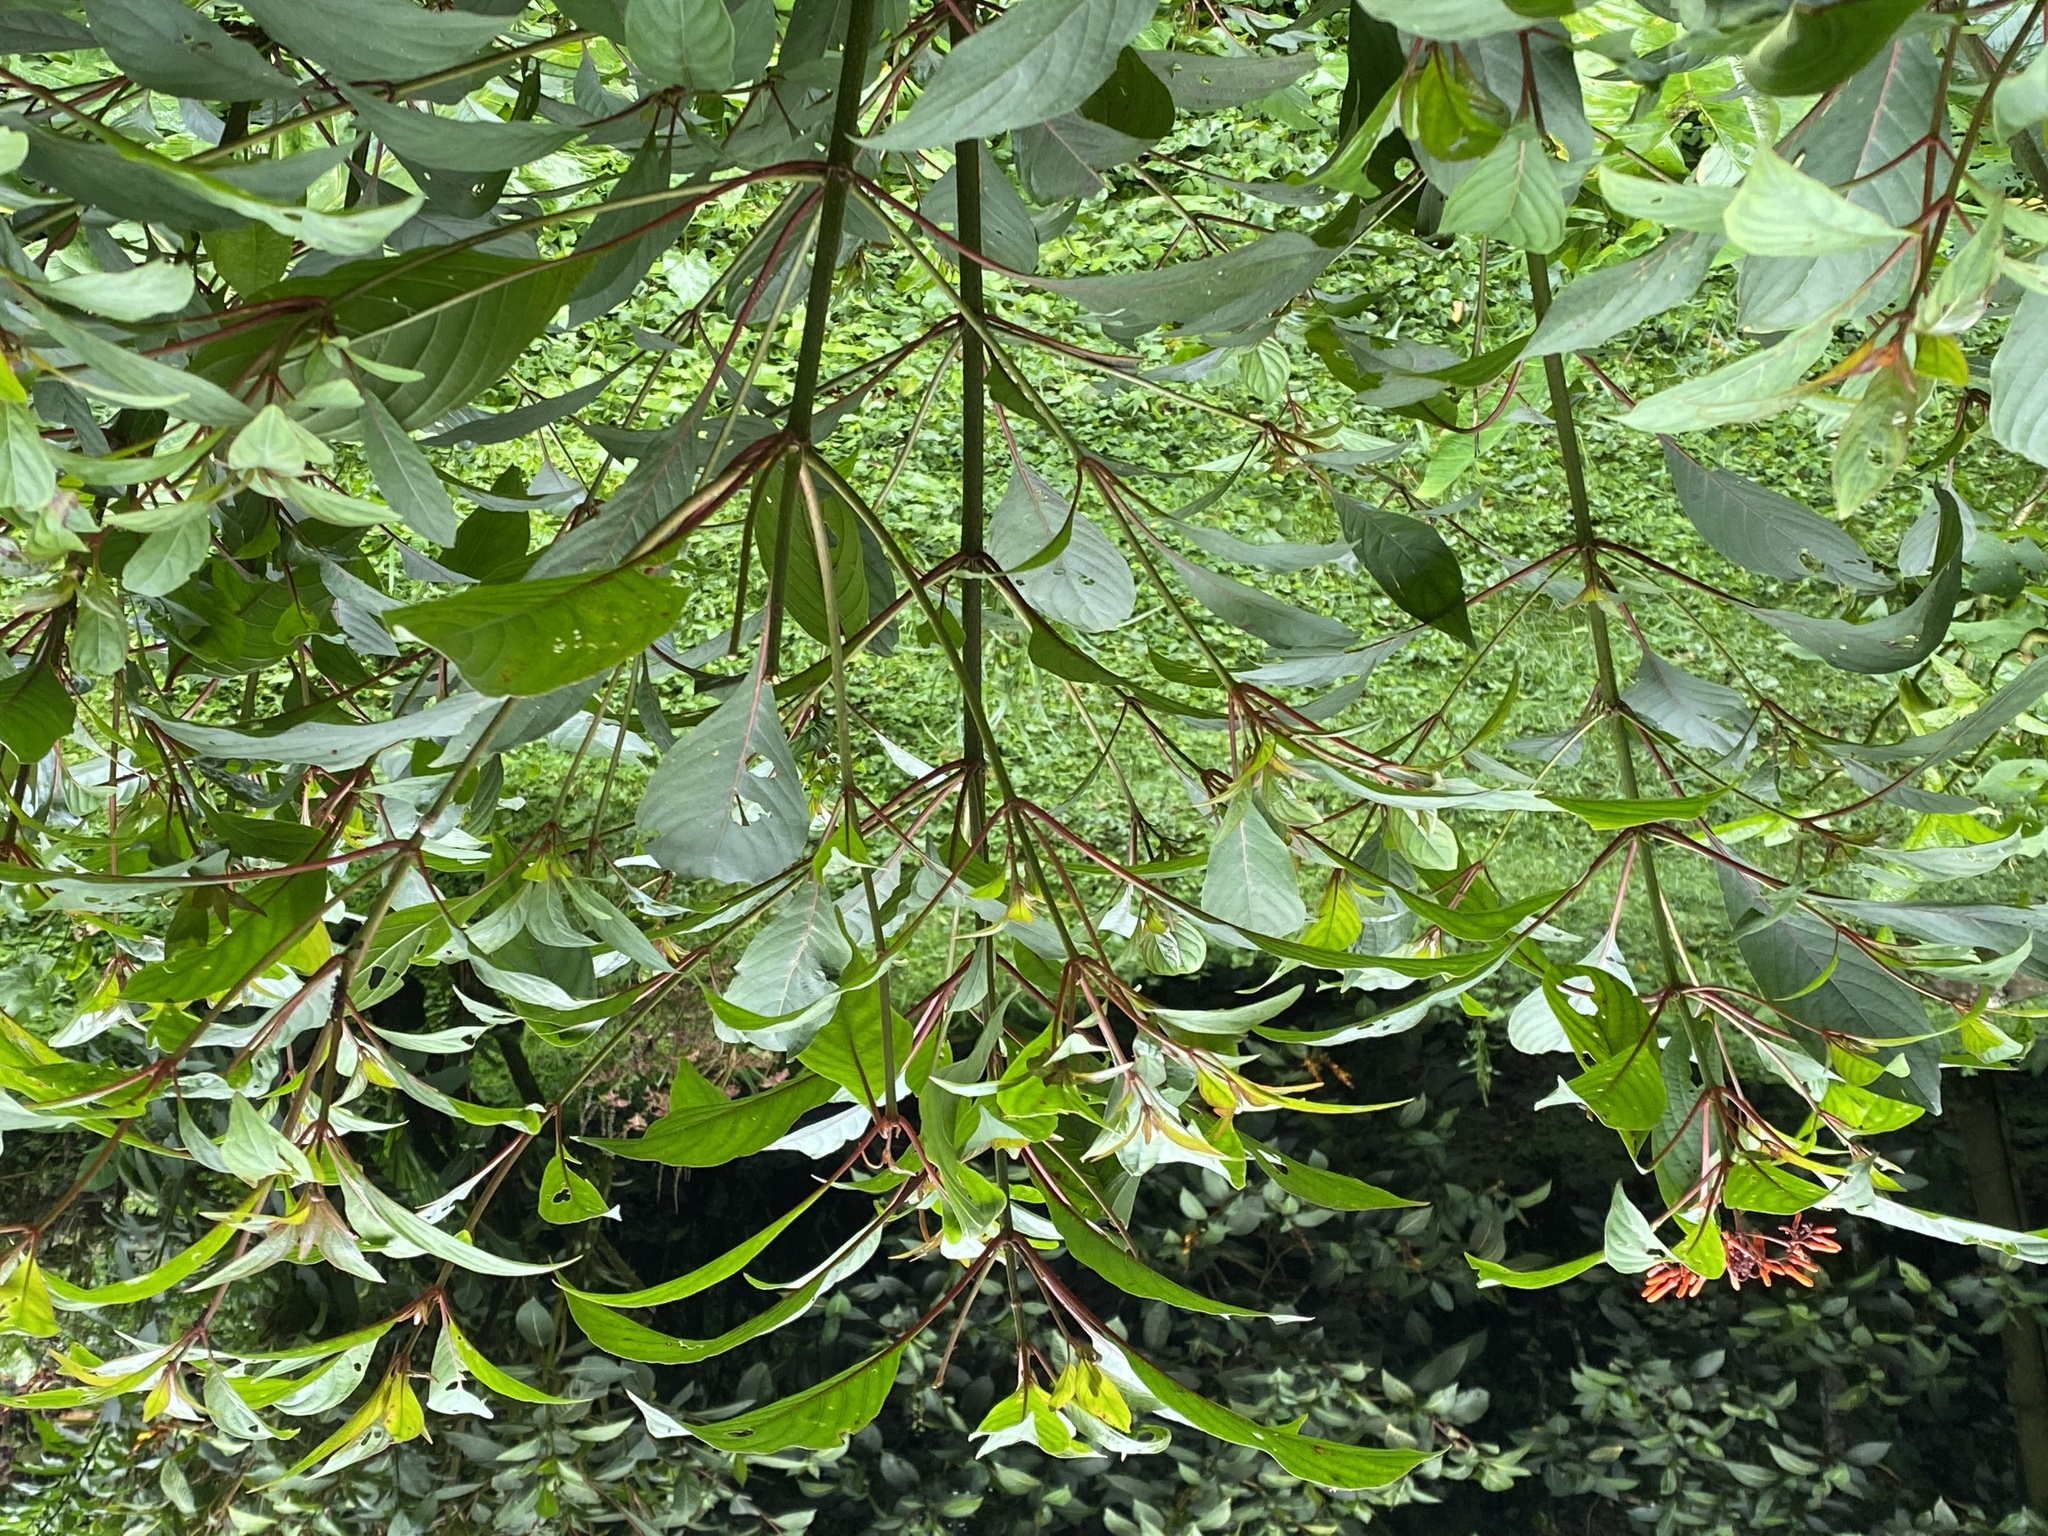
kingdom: Plantae
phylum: Tracheophyta
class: Magnoliopsida
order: Gentianales
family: Rubiaceae
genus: Hamelia
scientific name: Hamelia patens
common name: Redhead
